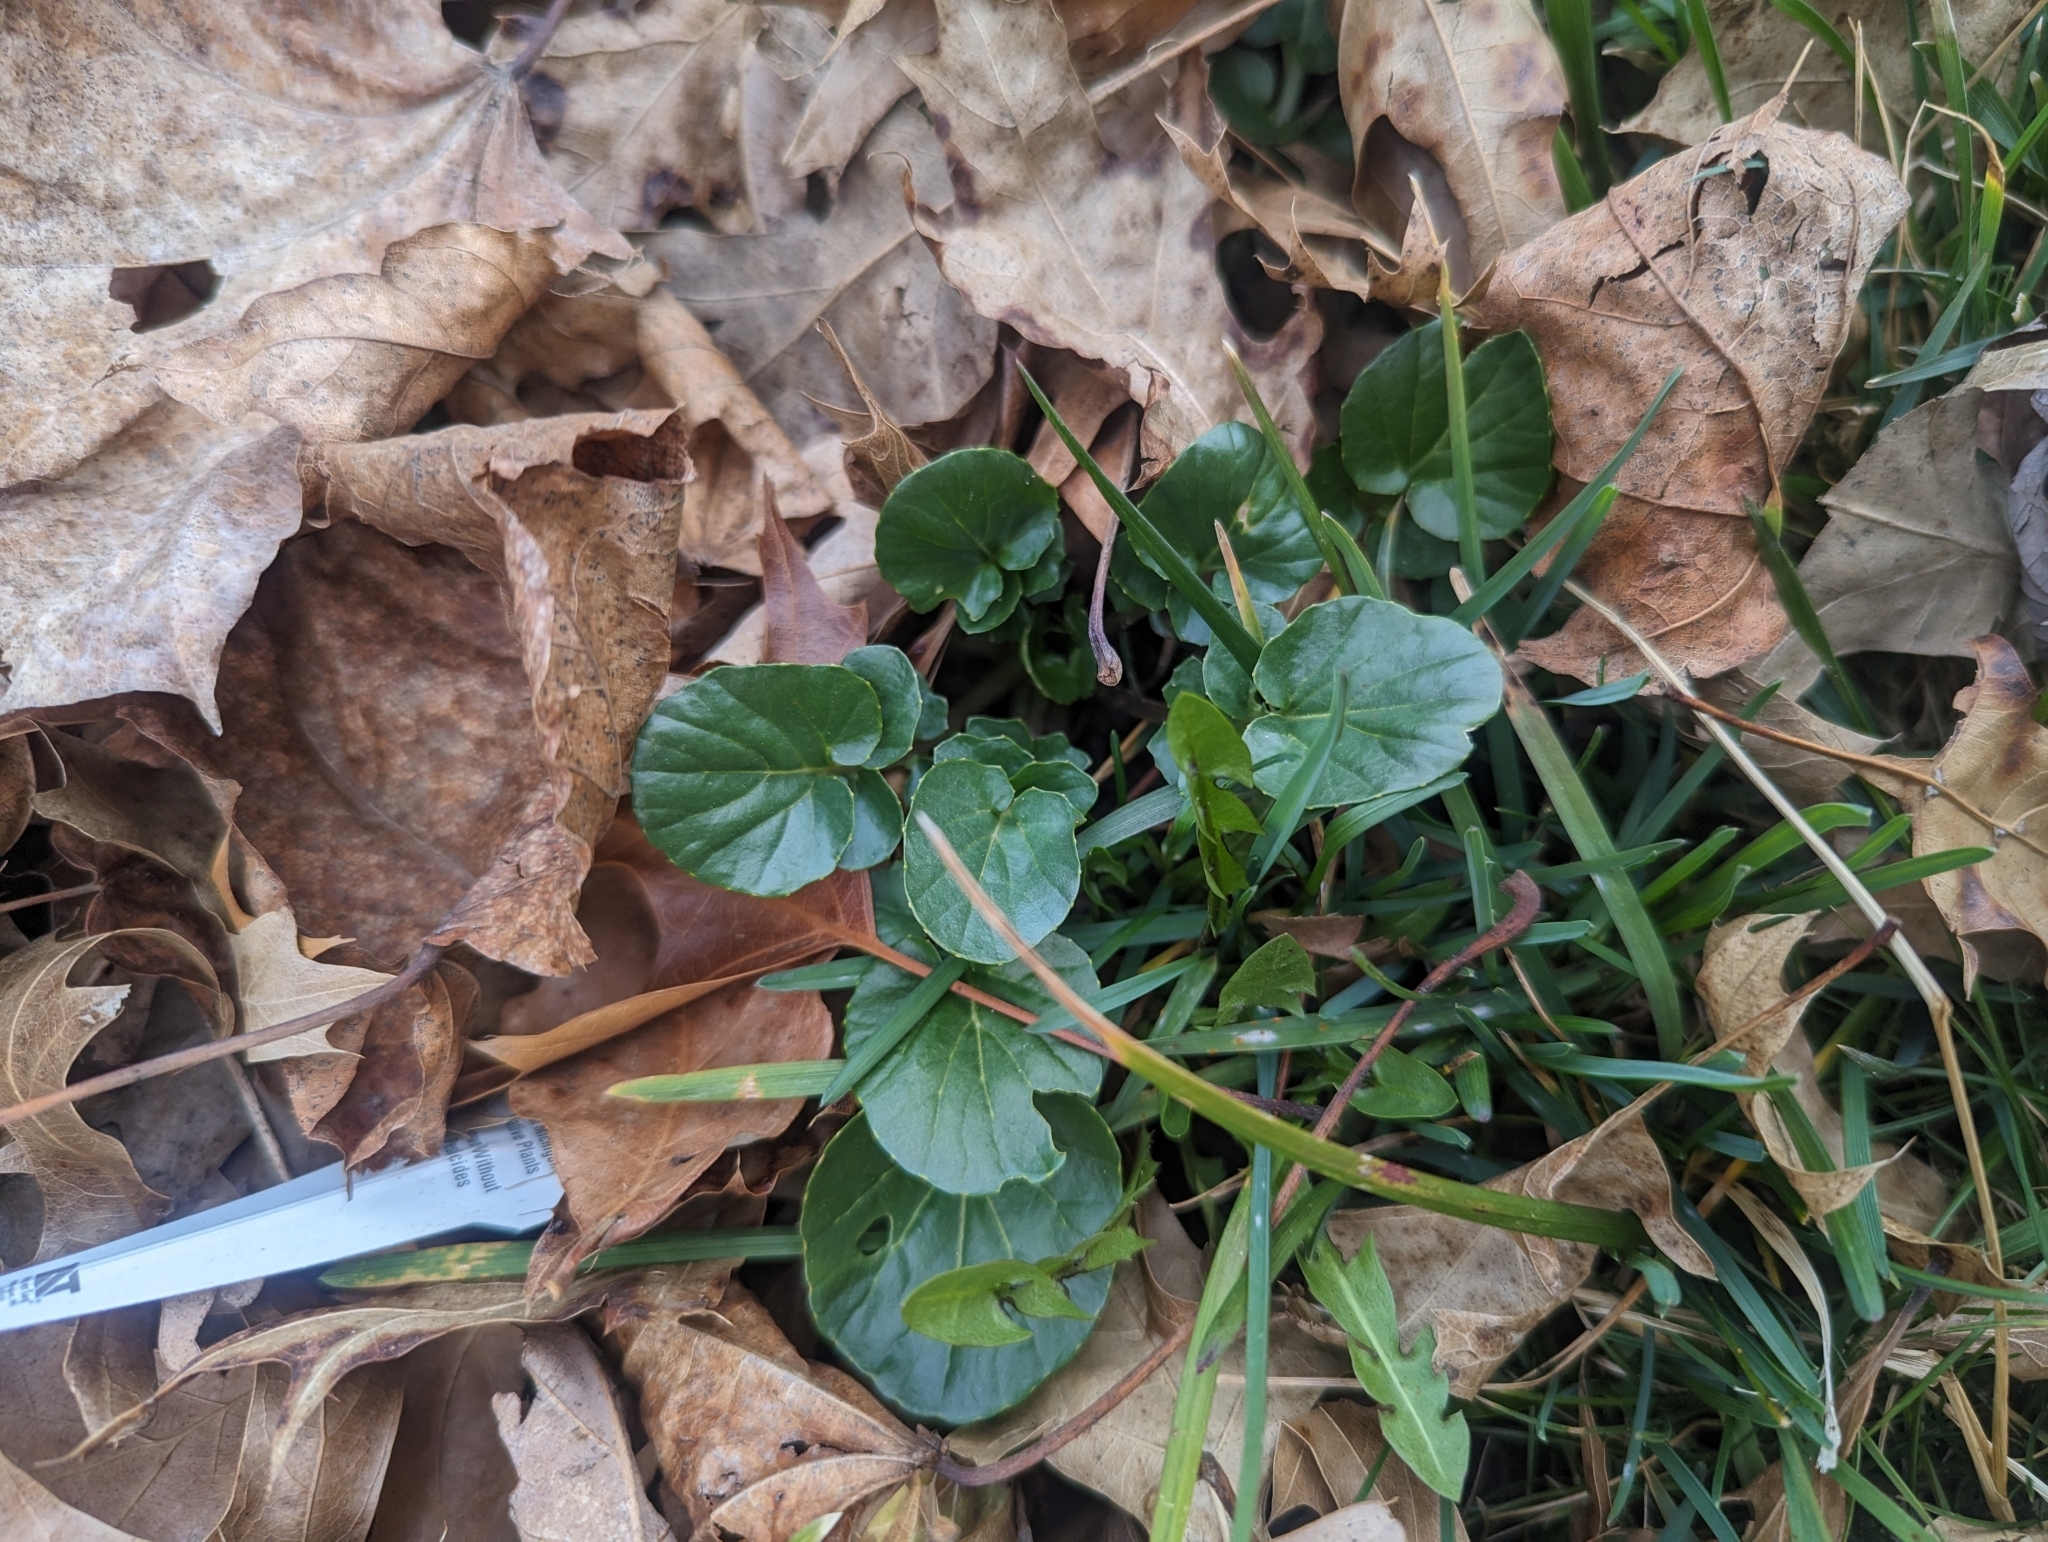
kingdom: Plantae
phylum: Tracheophyta
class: Magnoliopsida
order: Brassicales
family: Brassicaceae
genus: Barbarea
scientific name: Barbarea vulgaris
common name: Cressy-greens
